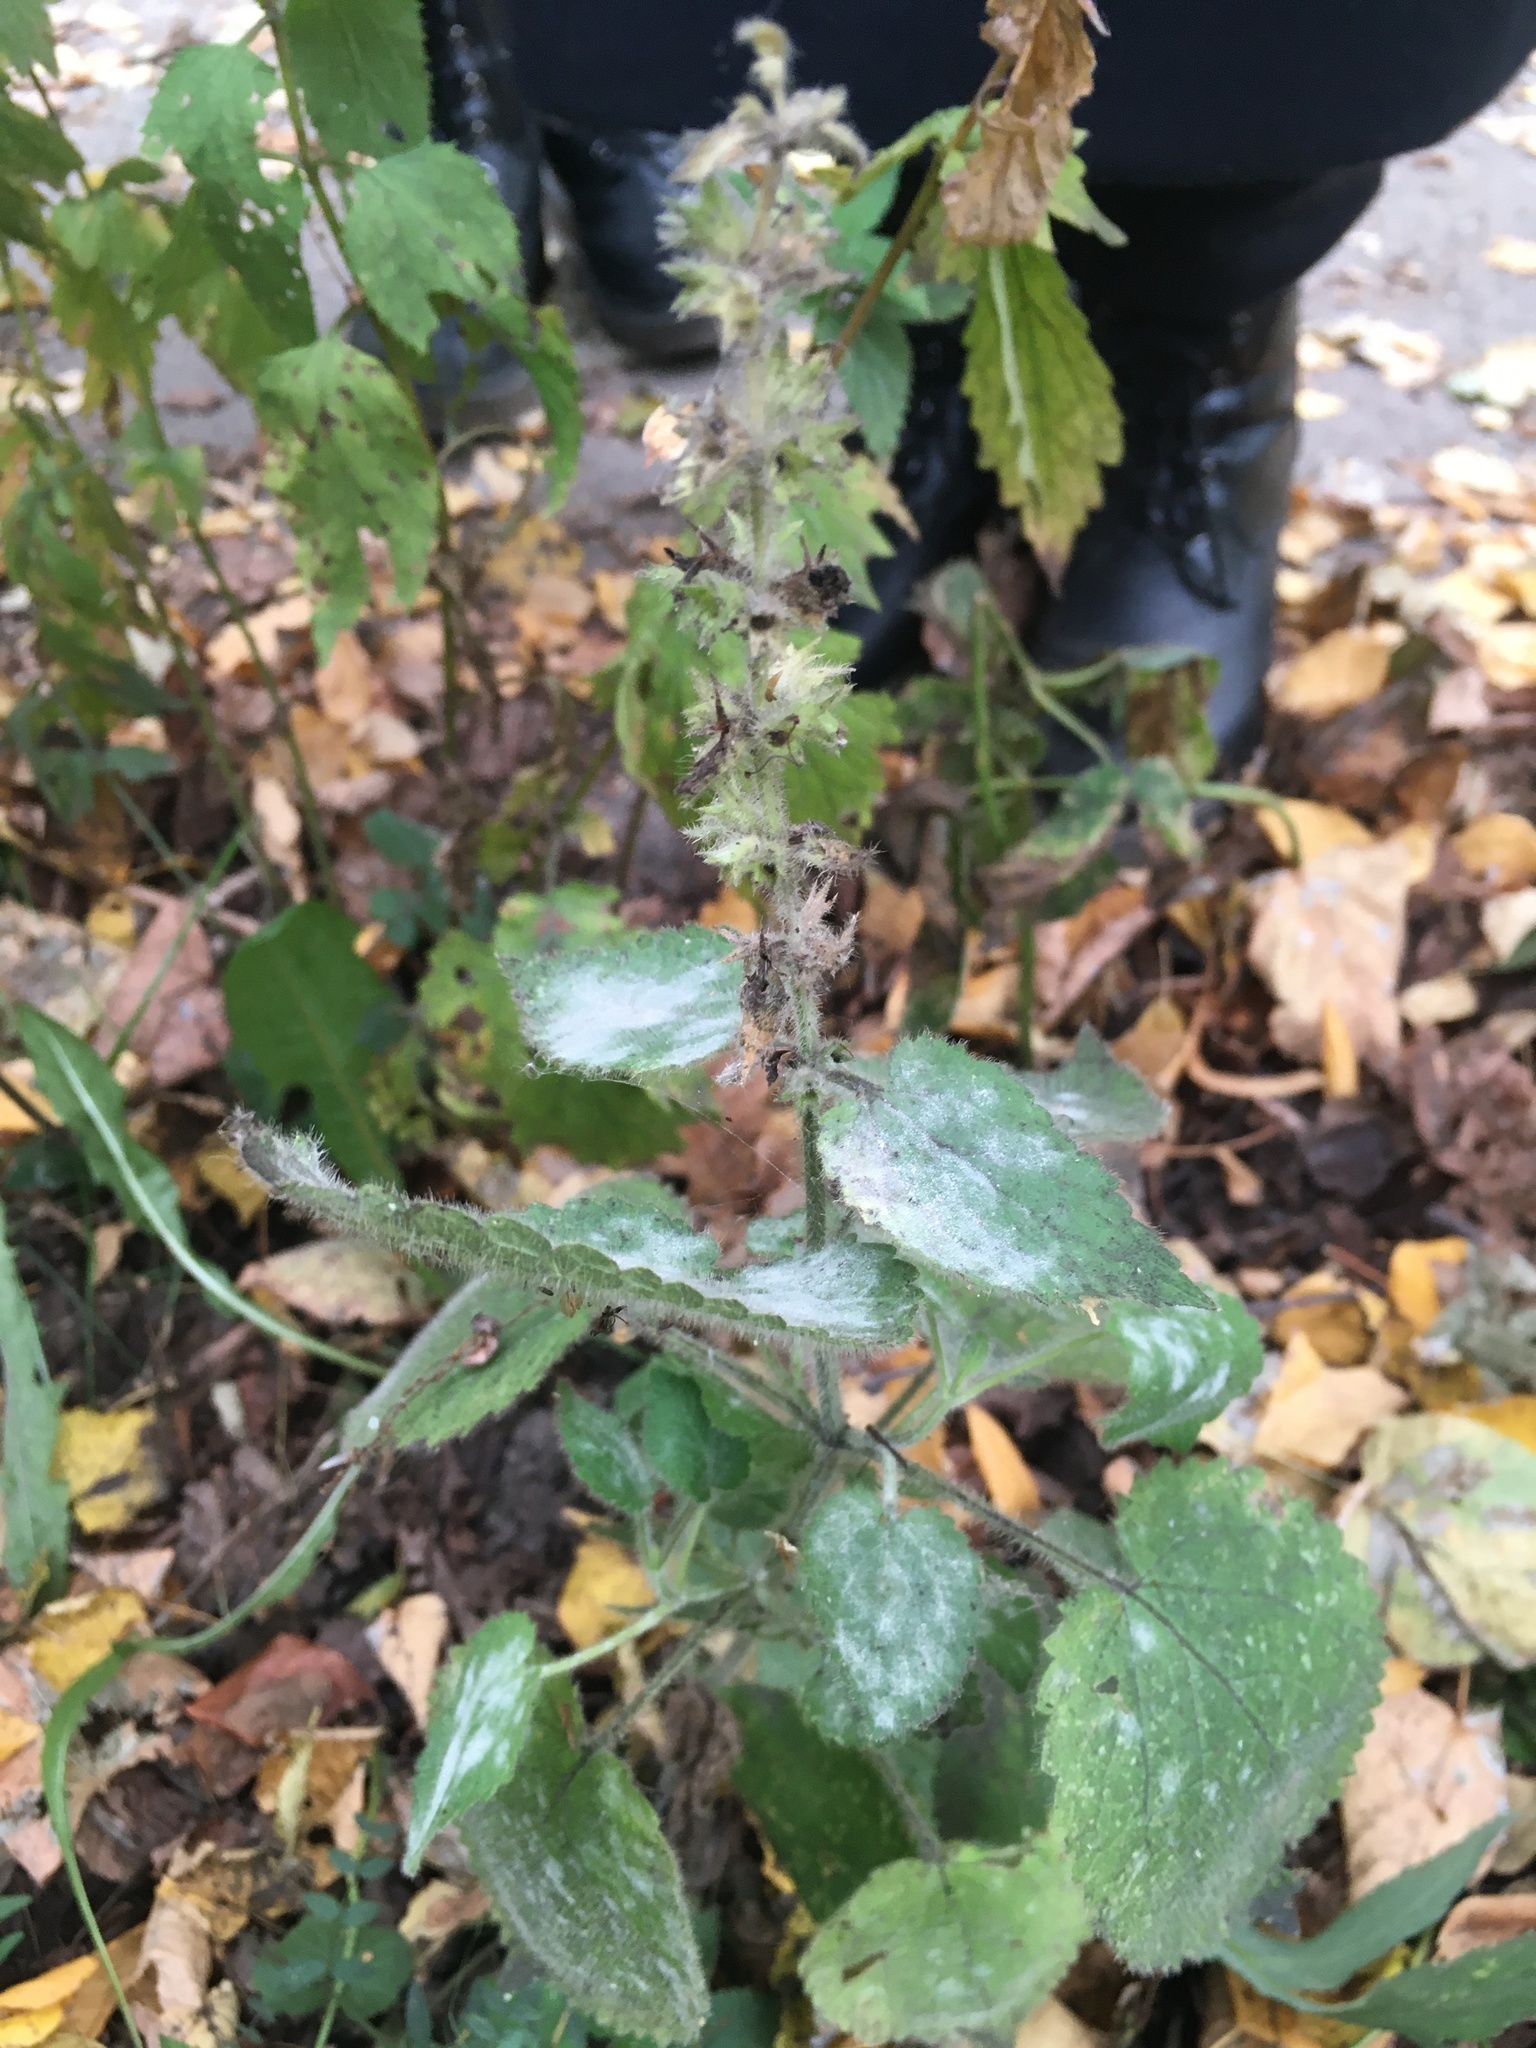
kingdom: Plantae
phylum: Tracheophyta
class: Magnoliopsida
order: Lamiales
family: Lamiaceae
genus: Stachys
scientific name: Stachys sylvatica
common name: Hedge woundwort
